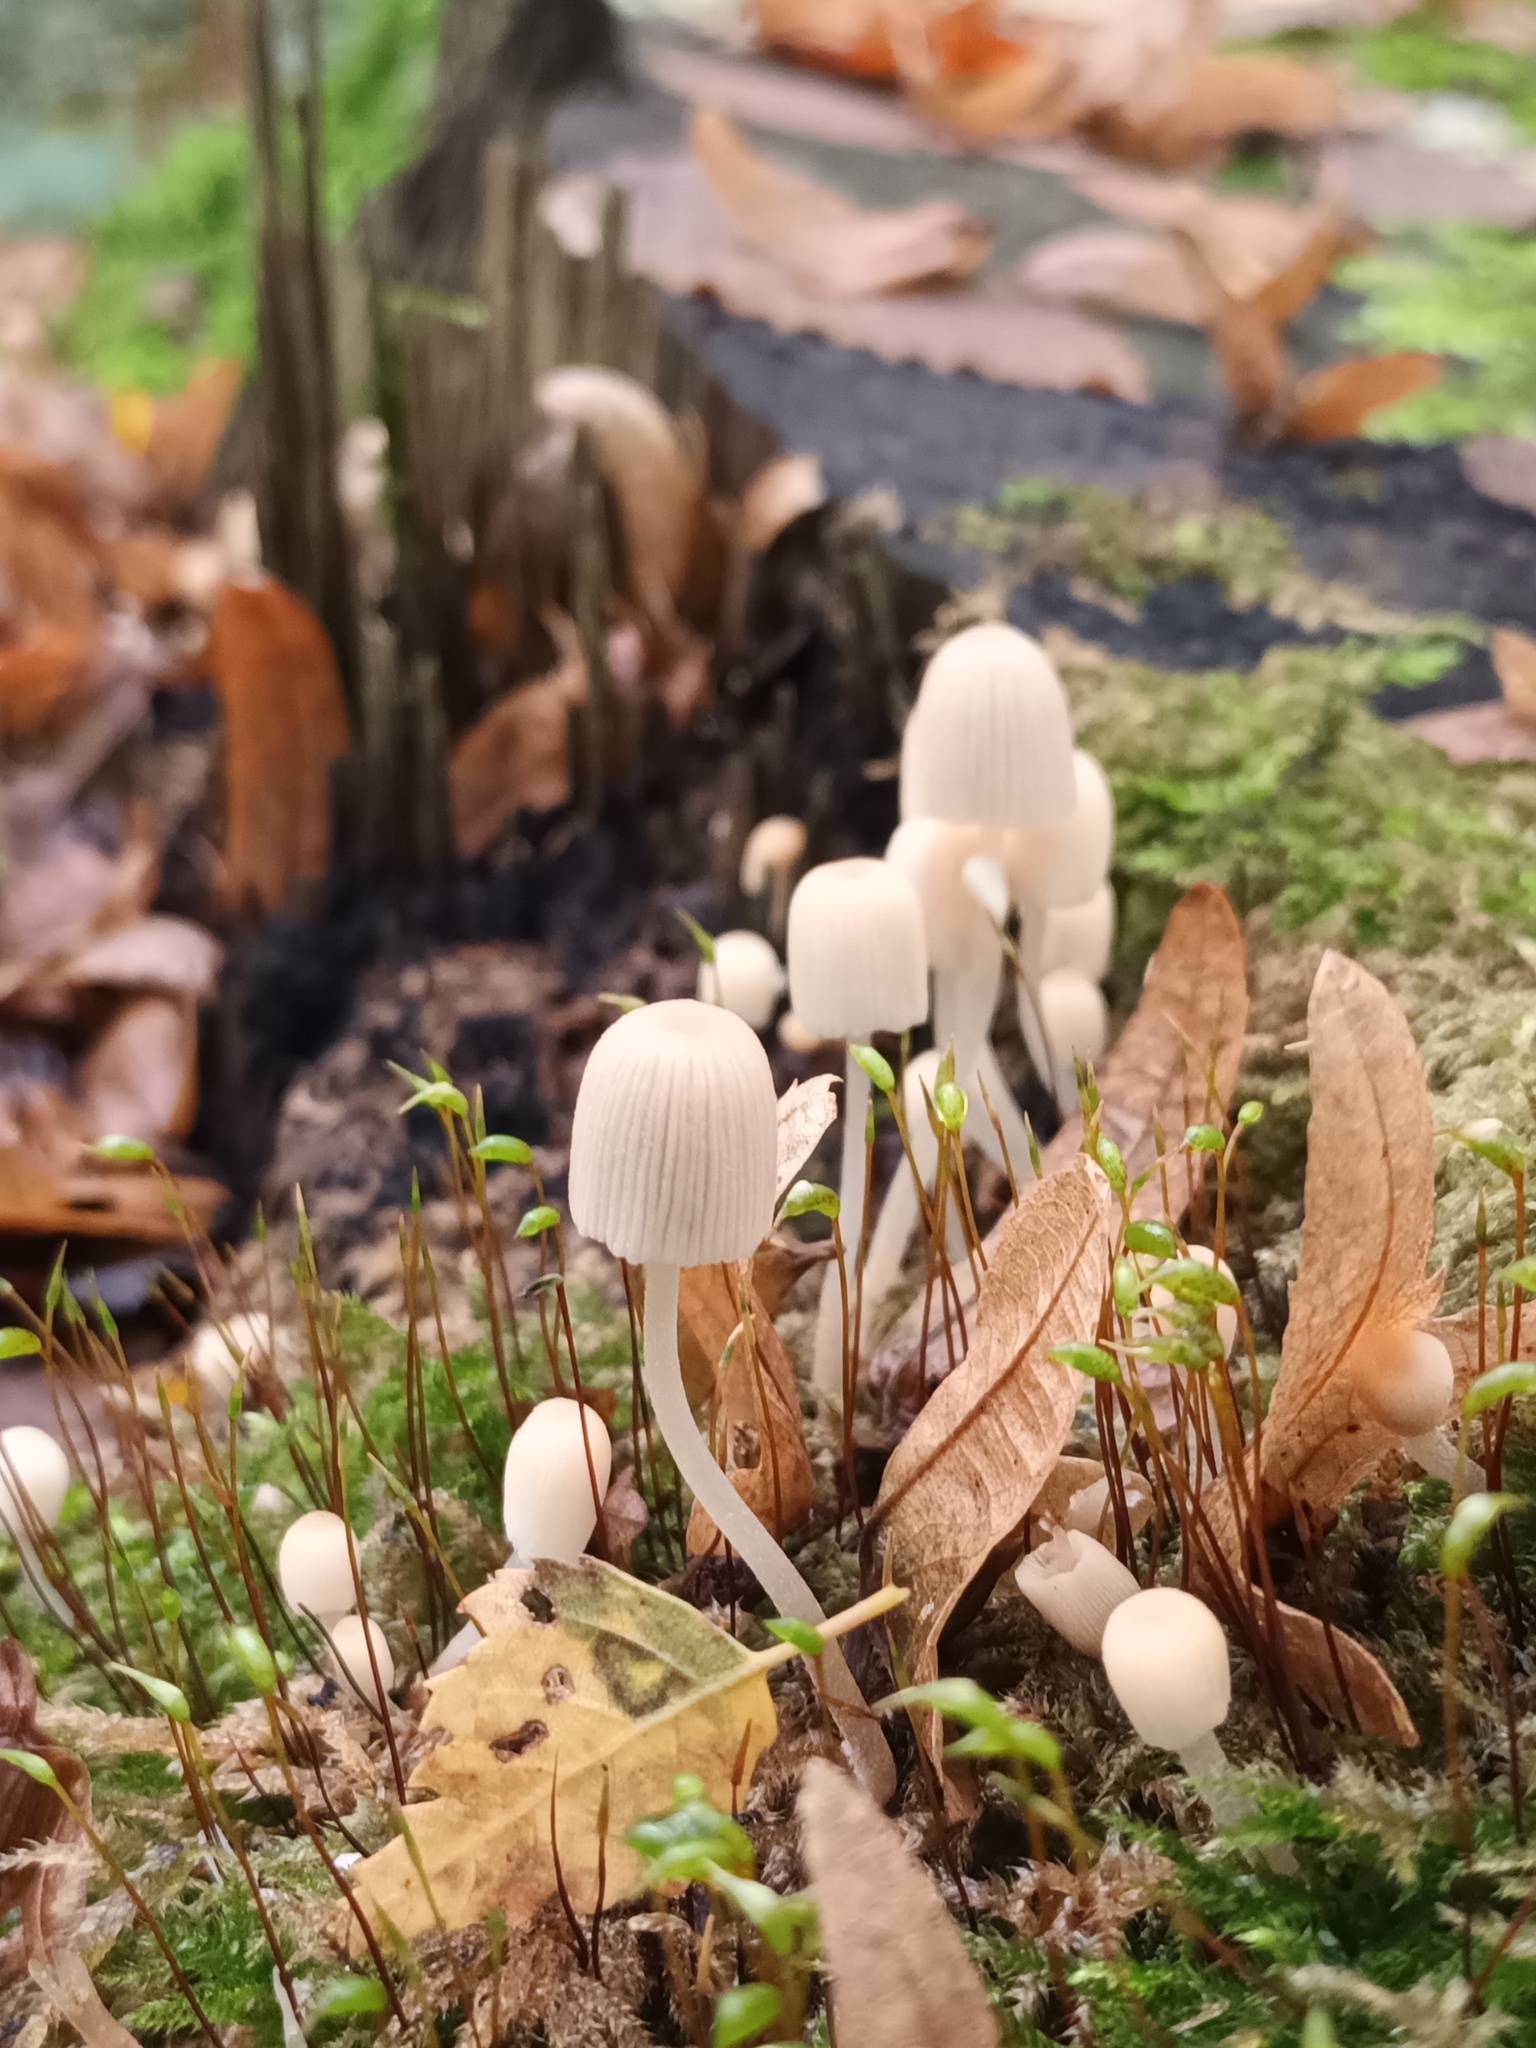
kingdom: Fungi
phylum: Basidiomycota
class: Agaricomycetes
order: Agaricales
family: Psathyrellaceae
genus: Coprinellus
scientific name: Coprinellus disseminatus
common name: Fairies' bonnets
